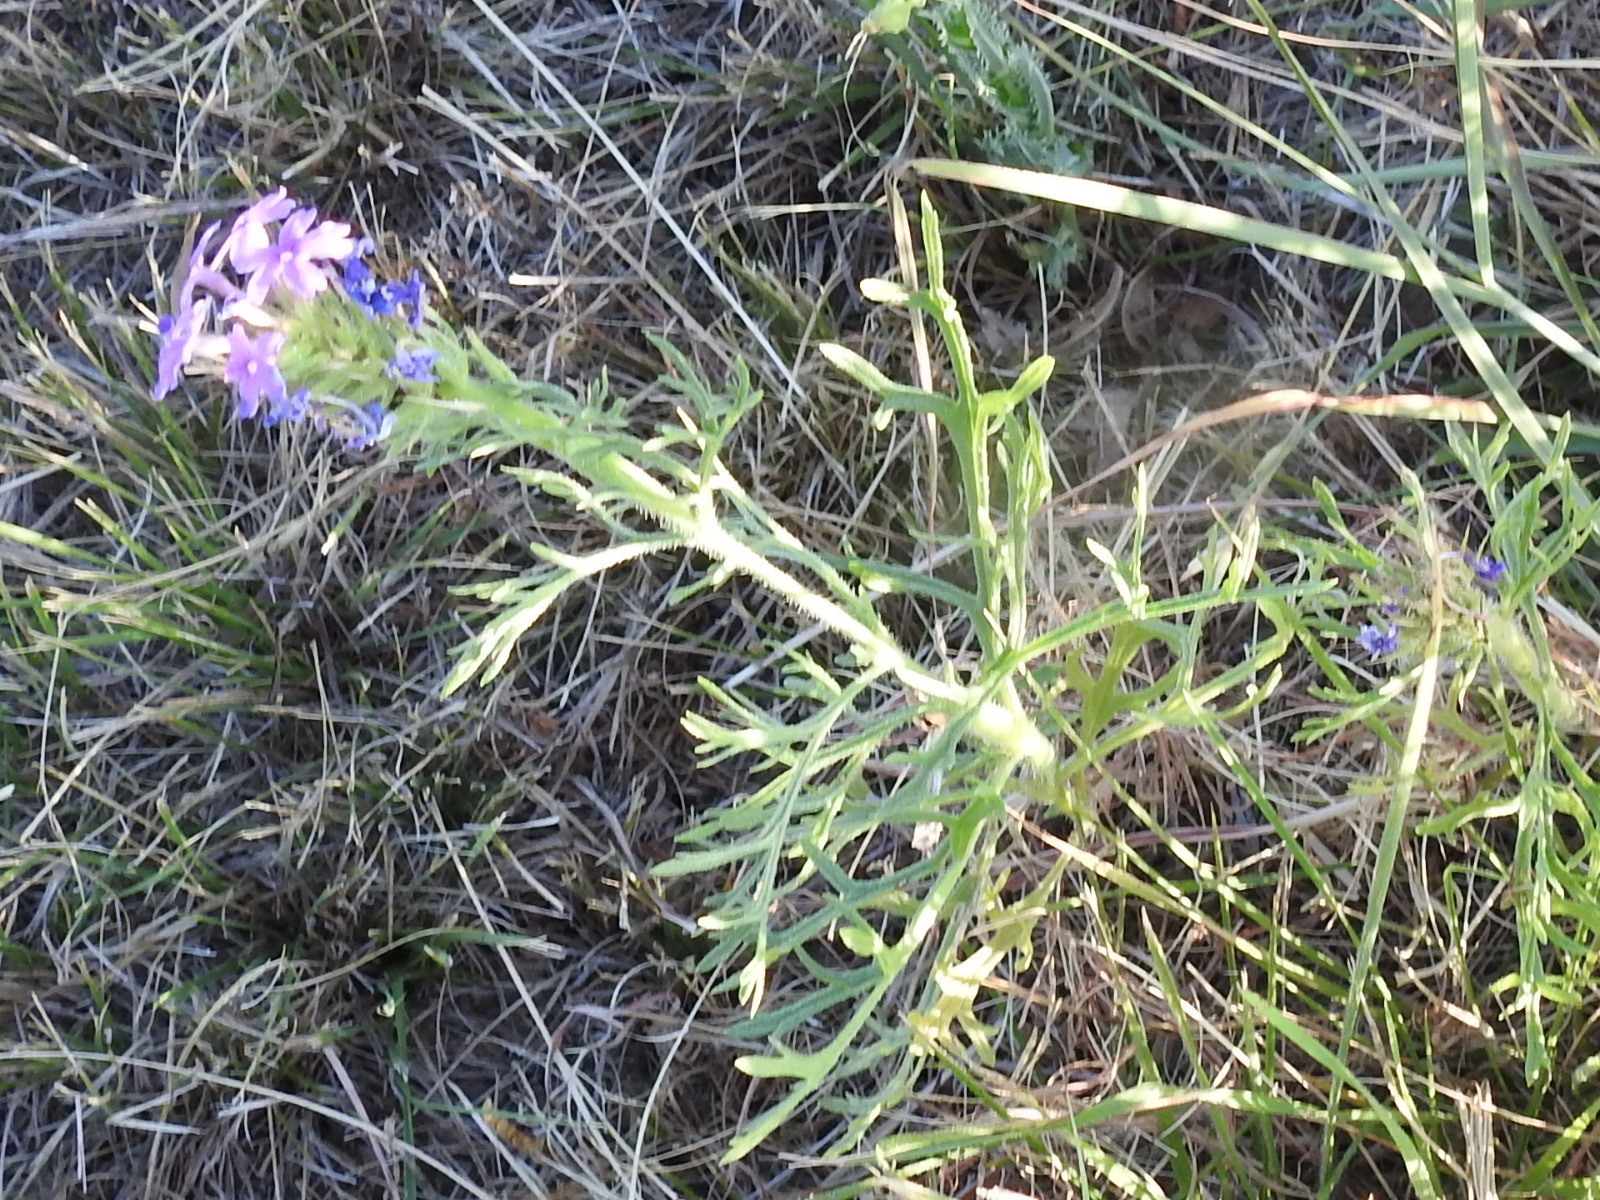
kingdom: Plantae
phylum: Tracheophyta
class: Magnoliopsida
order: Lamiales
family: Verbenaceae
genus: Verbena
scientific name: Verbena bipinnatifida
